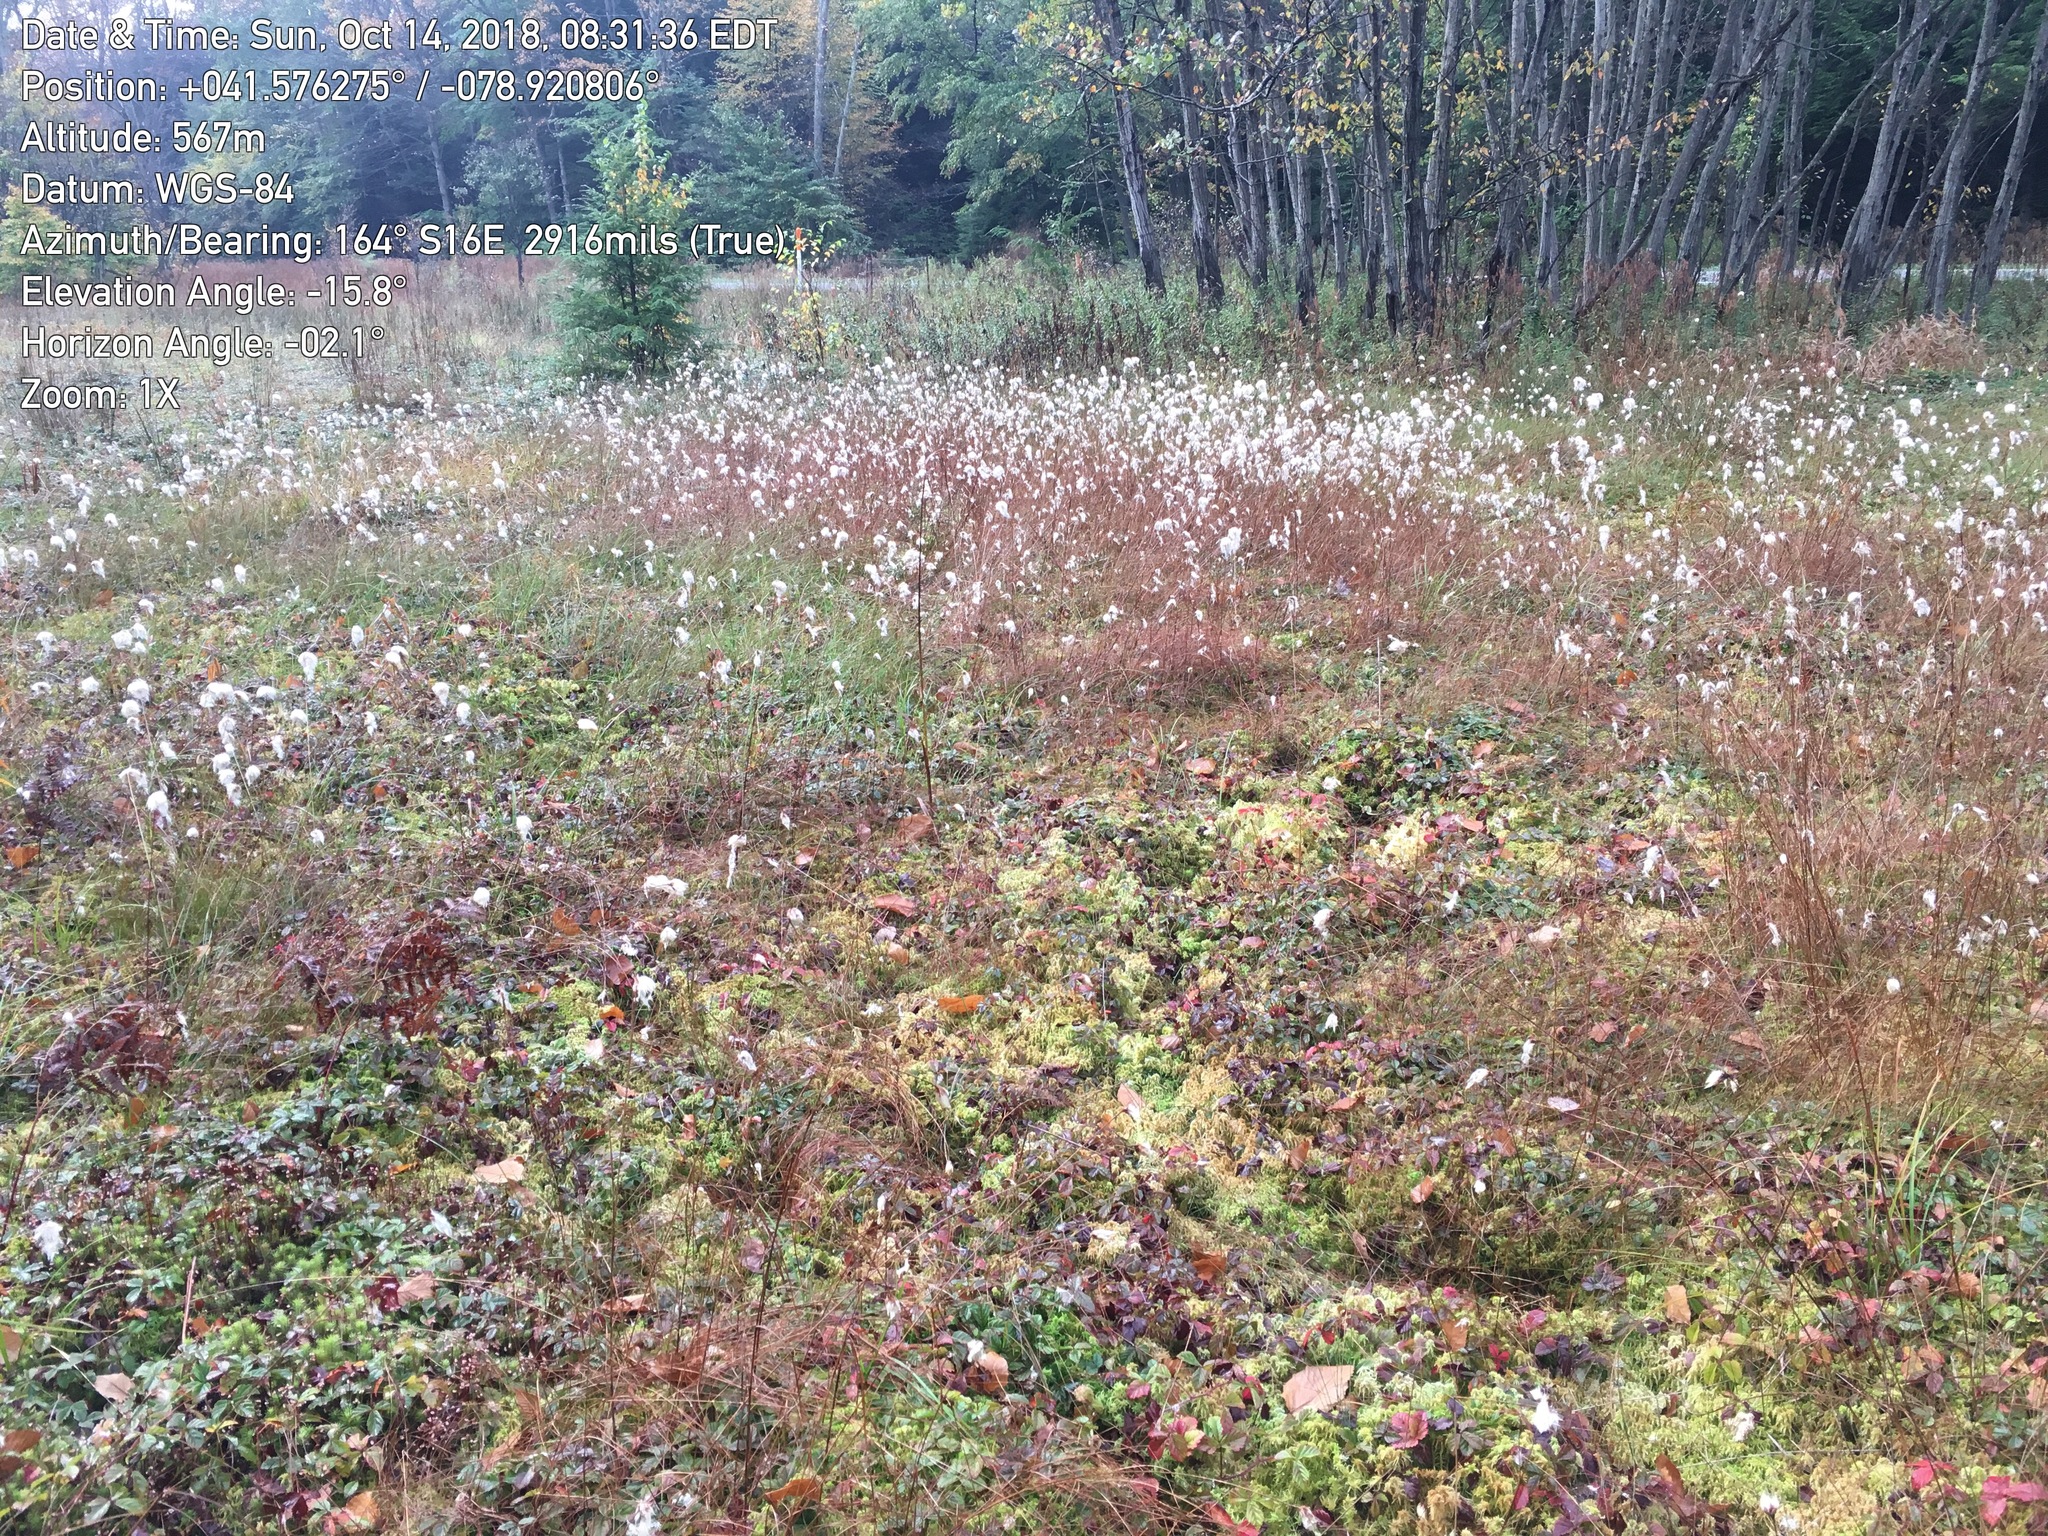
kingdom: Plantae
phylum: Tracheophyta
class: Liliopsida
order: Poales
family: Cyperaceae
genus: Eriophorum
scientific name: Eriophorum virginicum
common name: Tawny cottongrass
